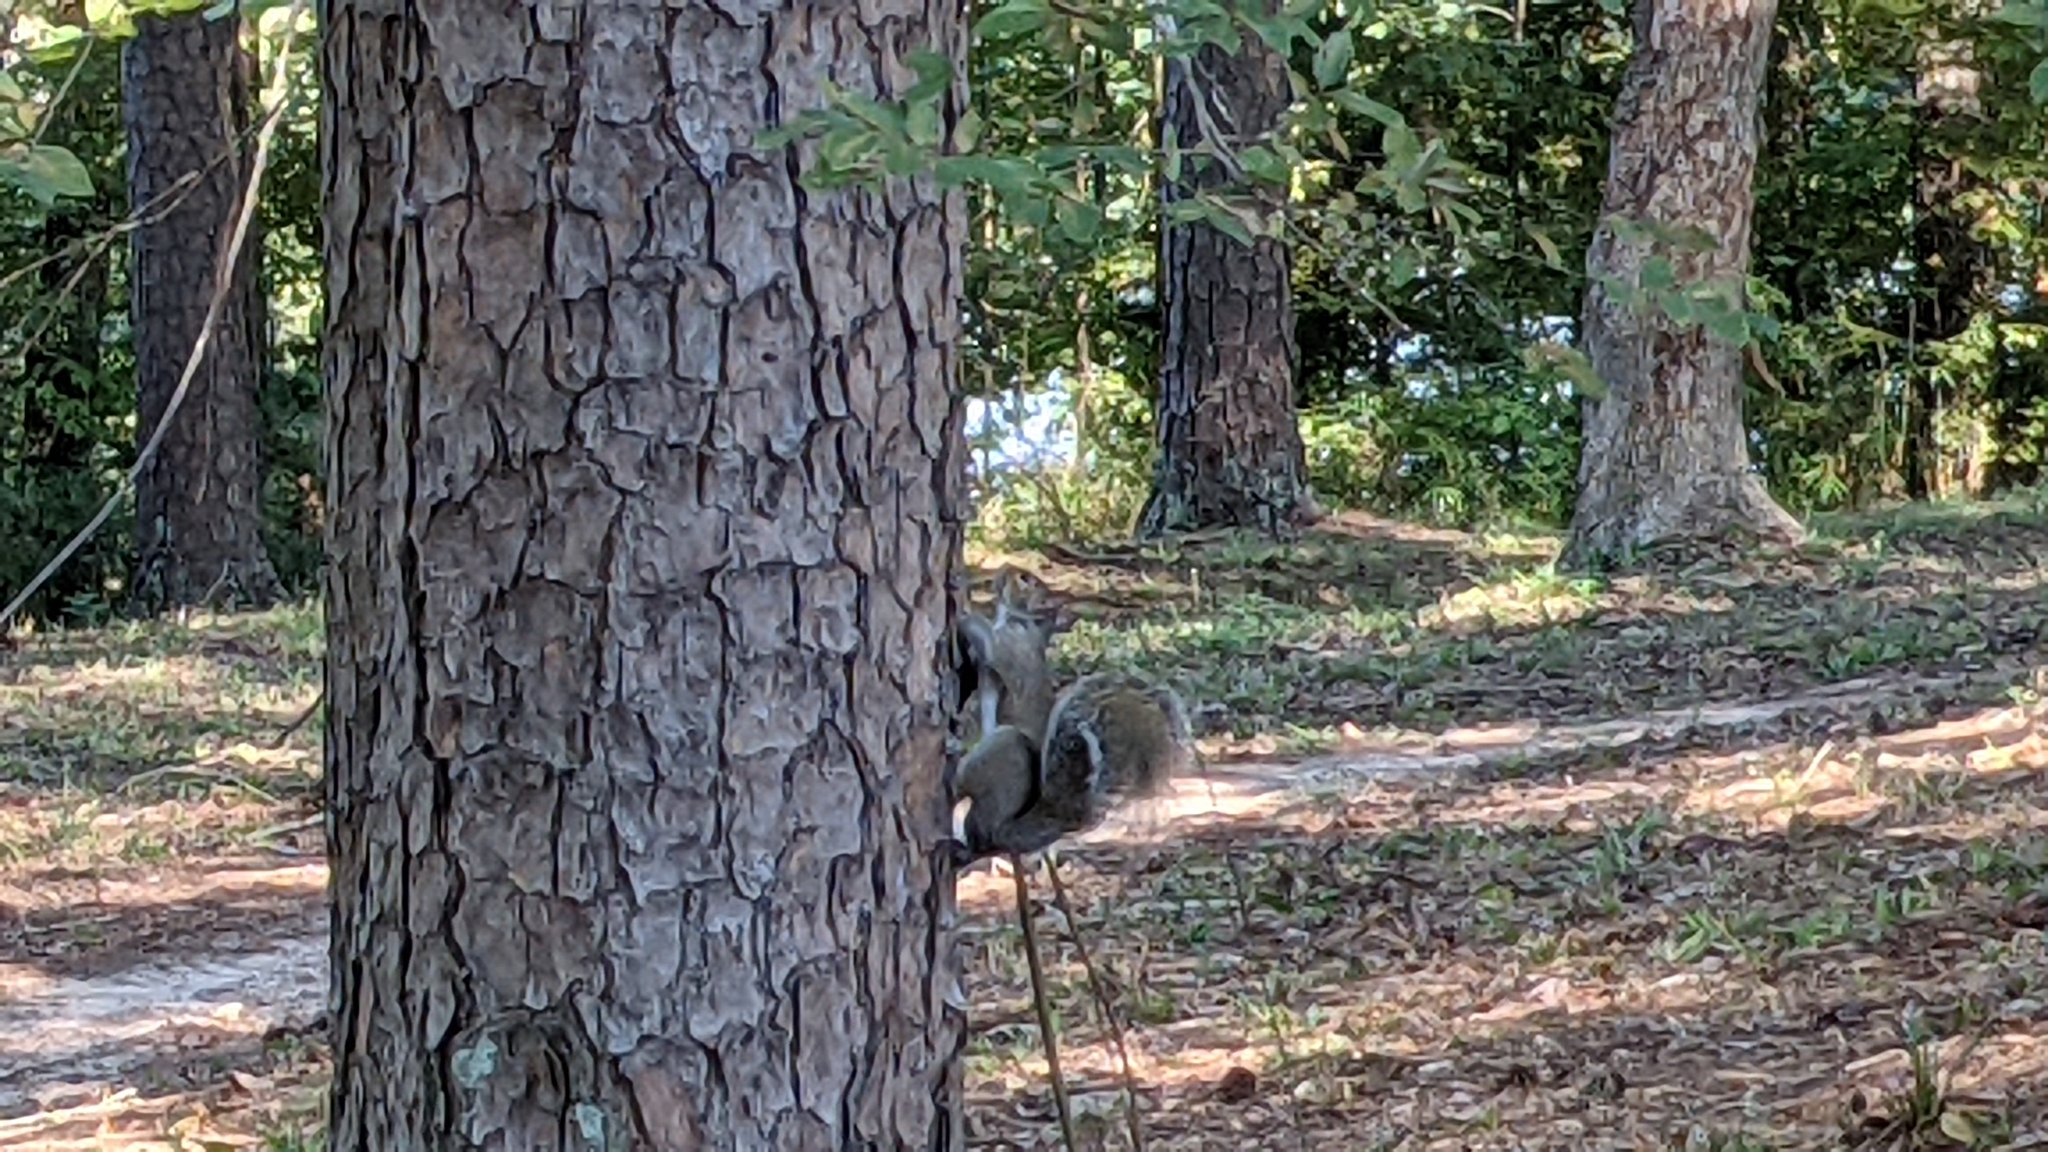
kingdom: Animalia
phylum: Chordata
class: Mammalia
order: Rodentia
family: Sciuridae
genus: Sciurus
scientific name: Sciurus carolinensis
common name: Eastern gray squirrel
